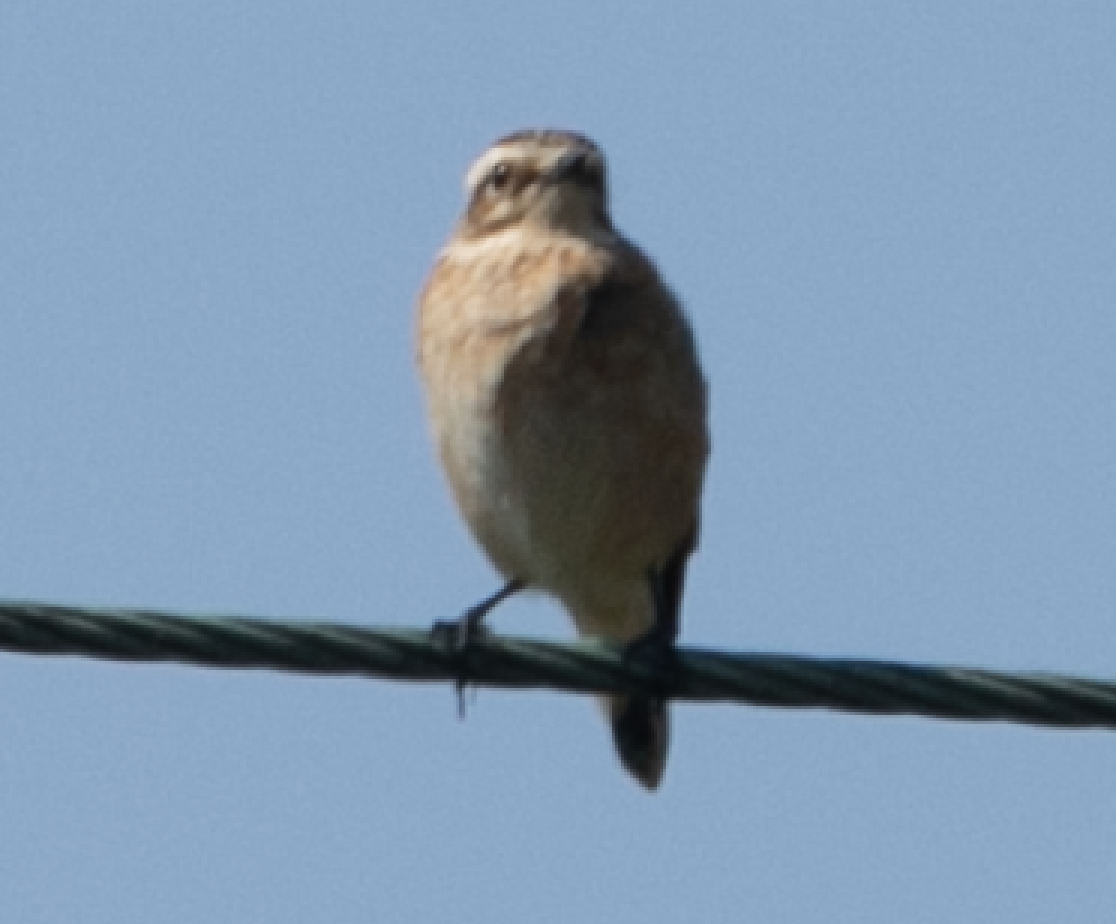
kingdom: Animalia
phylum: Chordata
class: Aves
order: Passeriformes
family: Muscicapidae
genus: Saxicola
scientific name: Saxicola rubetra
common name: Whinchat
